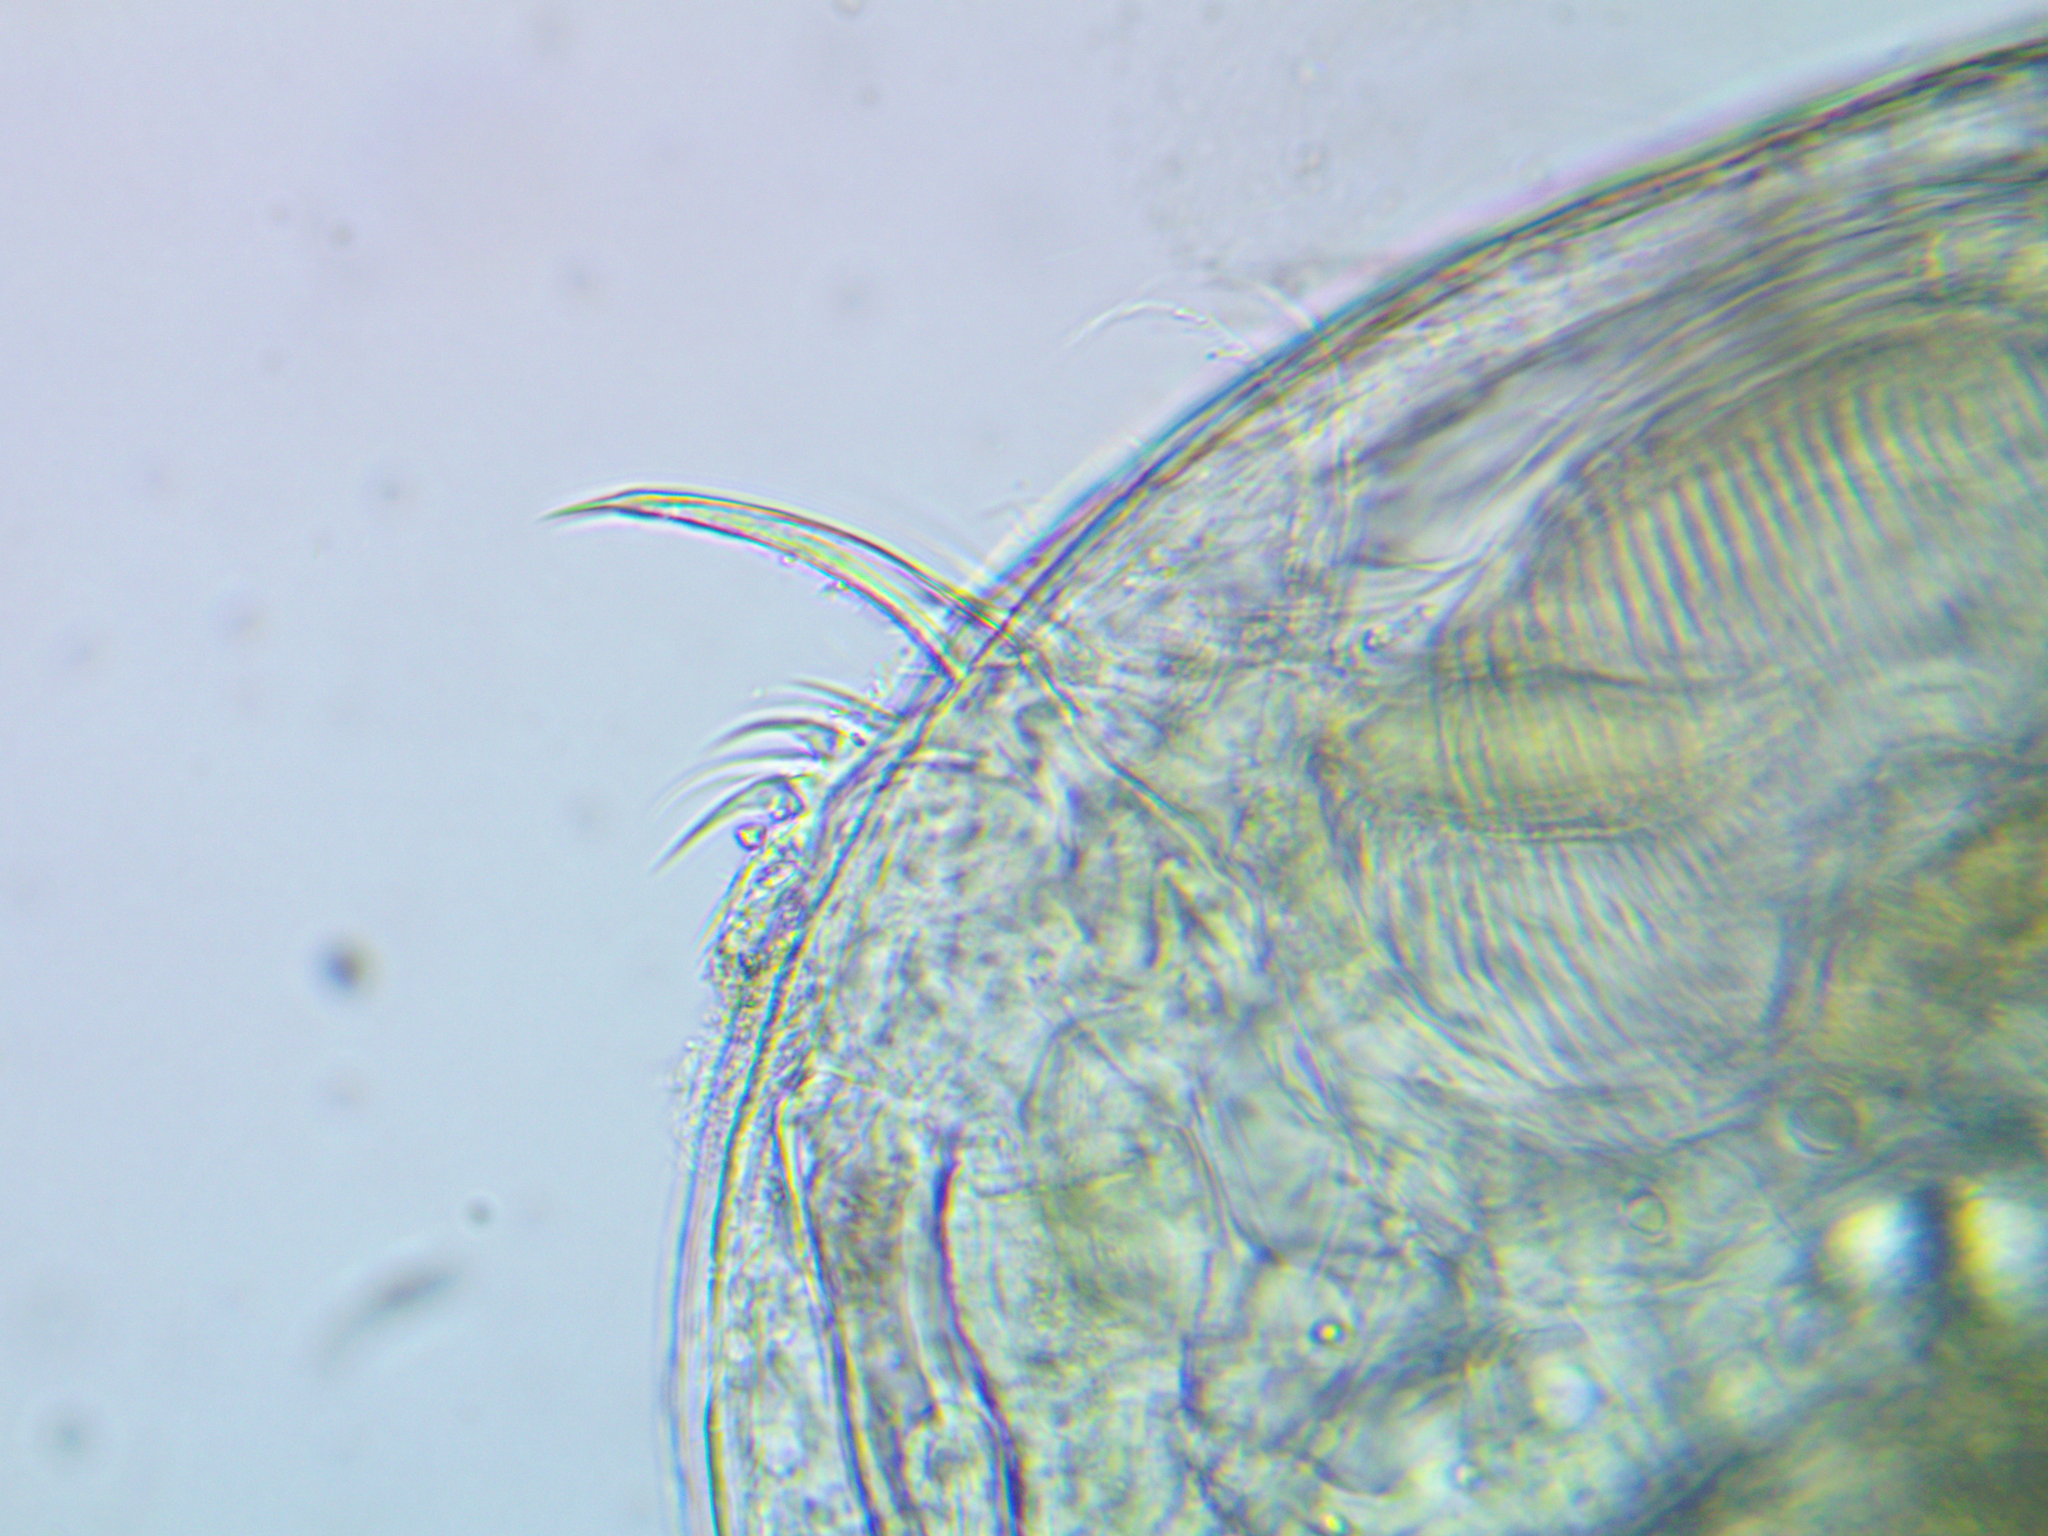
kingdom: Animalia
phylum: Arthropoda
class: Branchiopoda
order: Diplostraca
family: Daphniidae
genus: Ceriodaphnia
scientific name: Ceriodaphnia quadrangula
